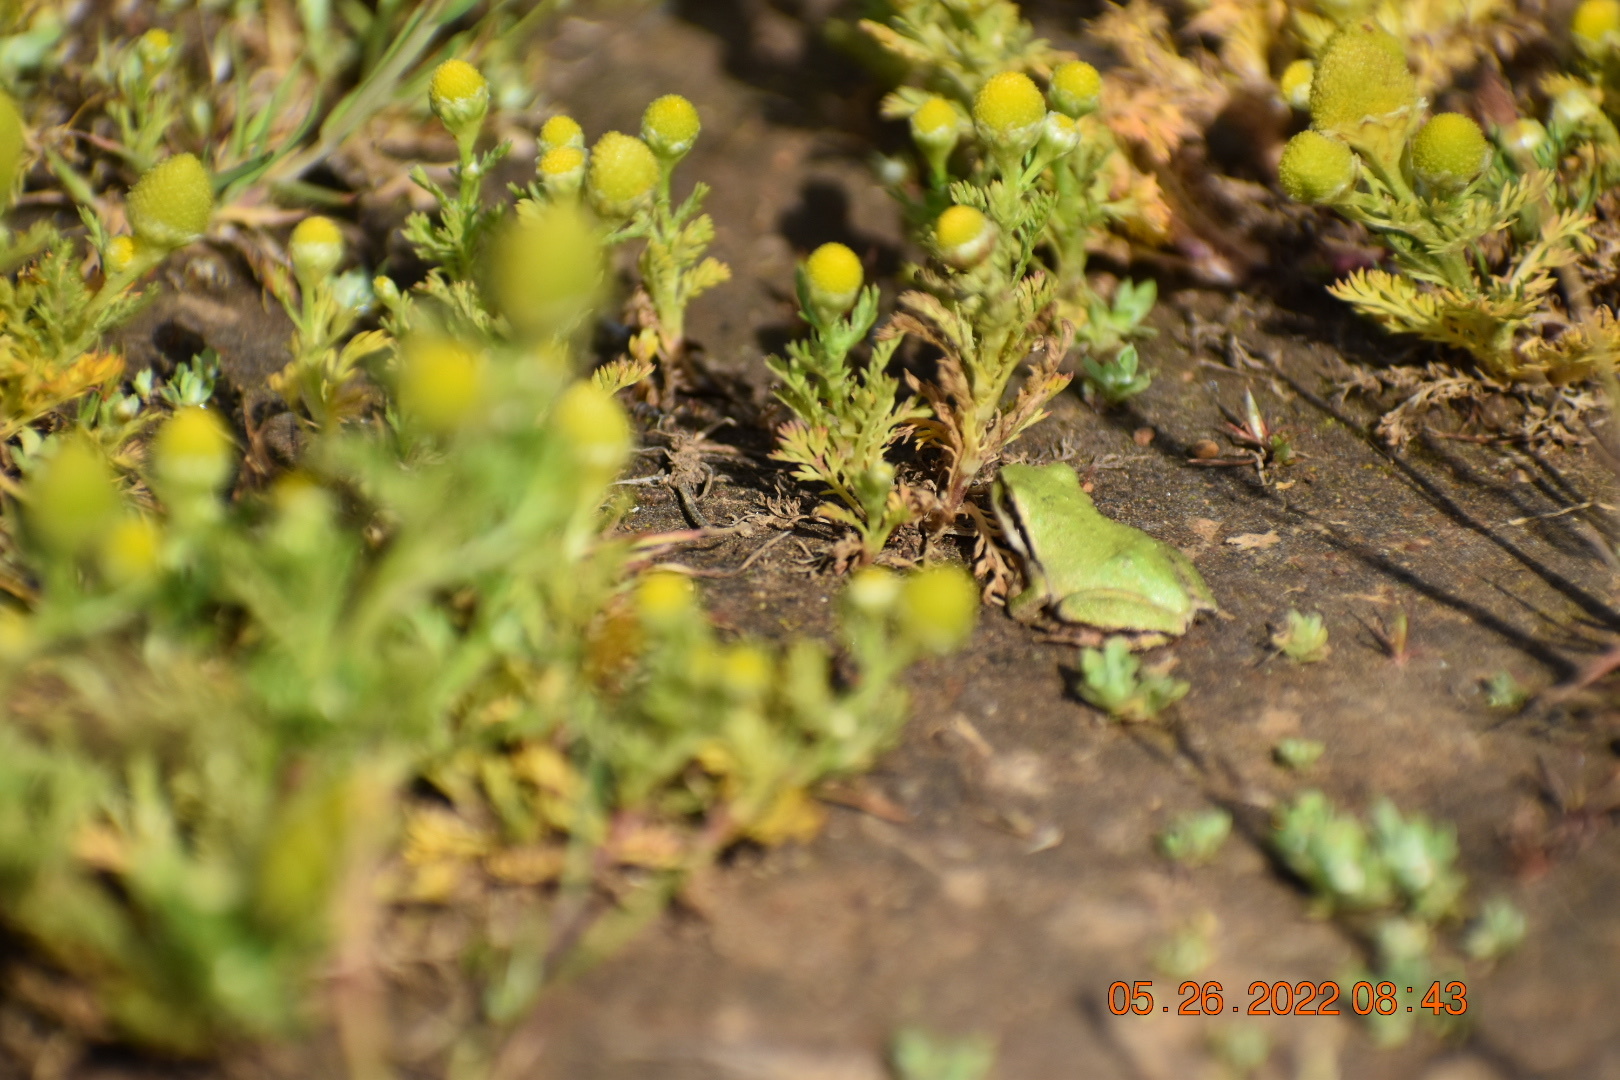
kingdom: Animalia
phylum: Chordata
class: Amphibia
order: Anura
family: Hylidae
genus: Pseudacris
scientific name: Pseudacris regilla
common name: Pacific chorus frog
